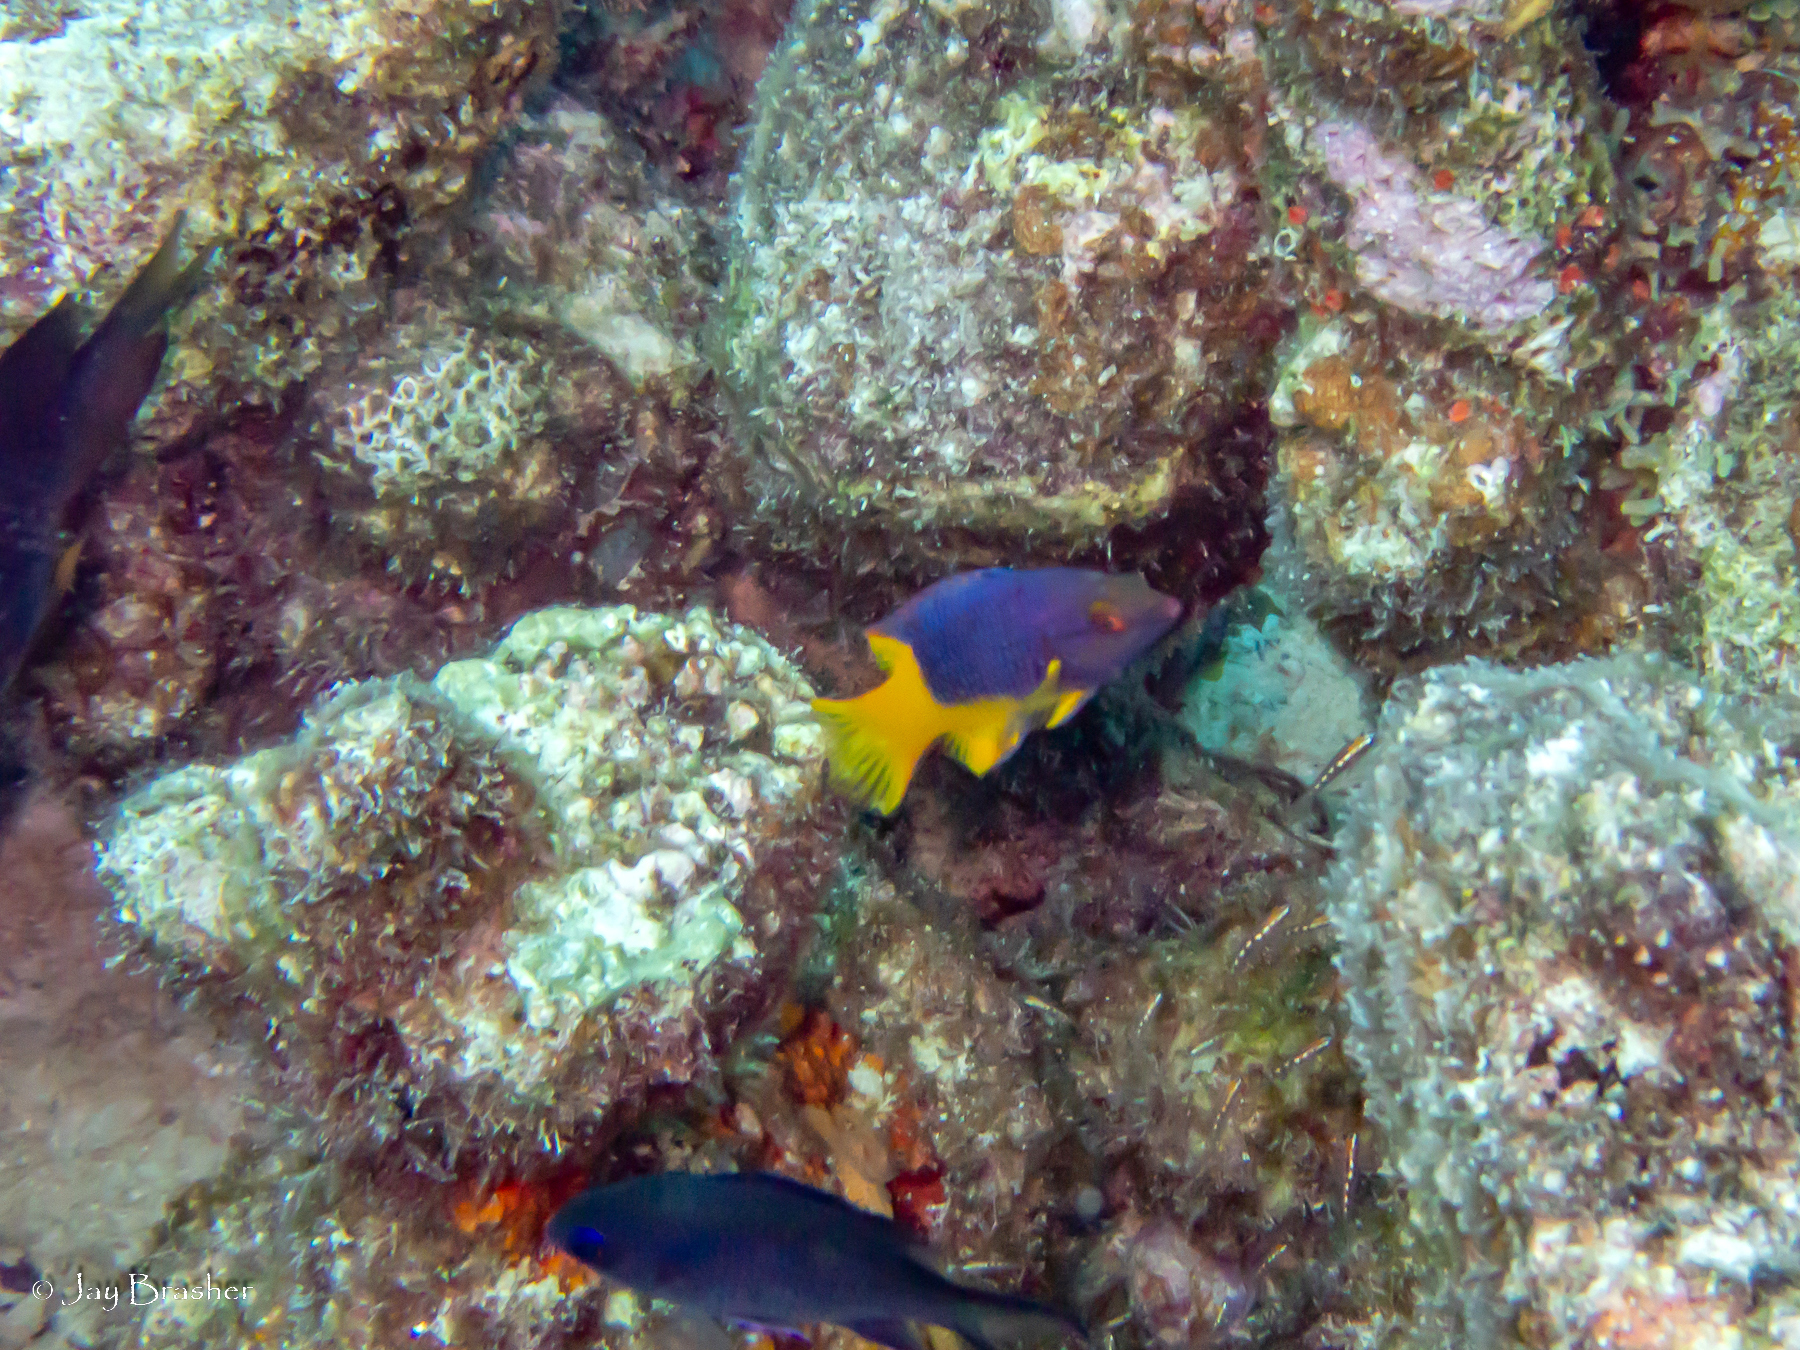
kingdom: Animalia
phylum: Chordata
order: Perciformes
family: Labridae
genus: Bodianus
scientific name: Bodianus rufus
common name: Spanish hogfish
